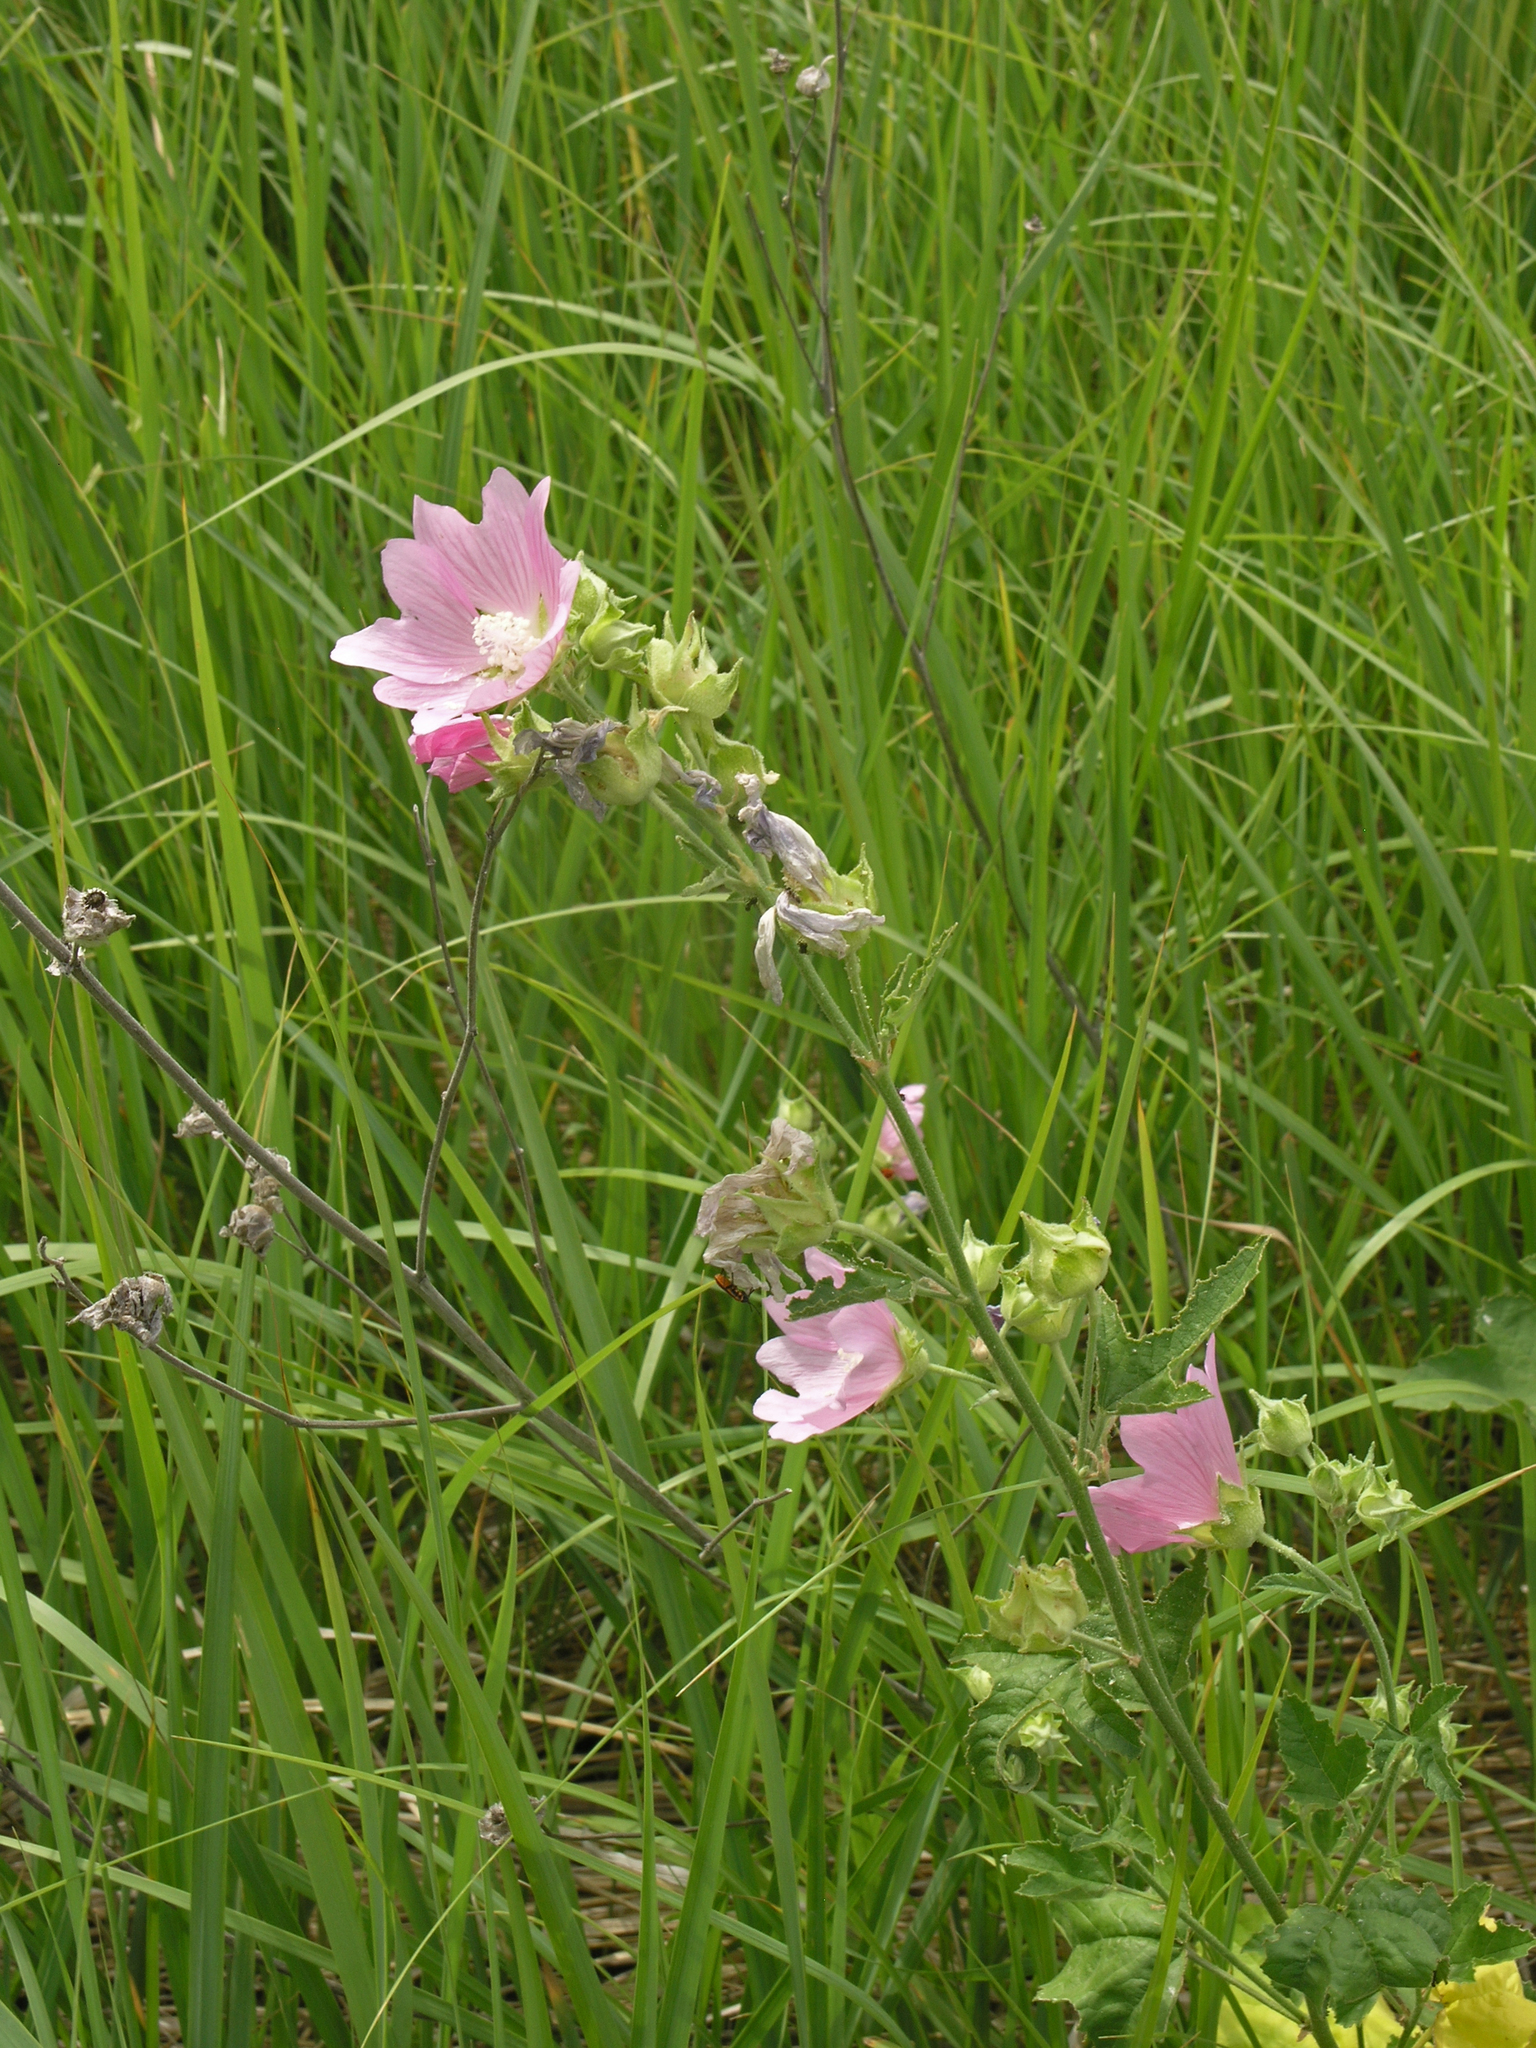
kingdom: Plantae
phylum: Tracheophyta
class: Magnoliopsida
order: Malvales
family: Malvaceae
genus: Malva
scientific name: Malva thuringiaca
